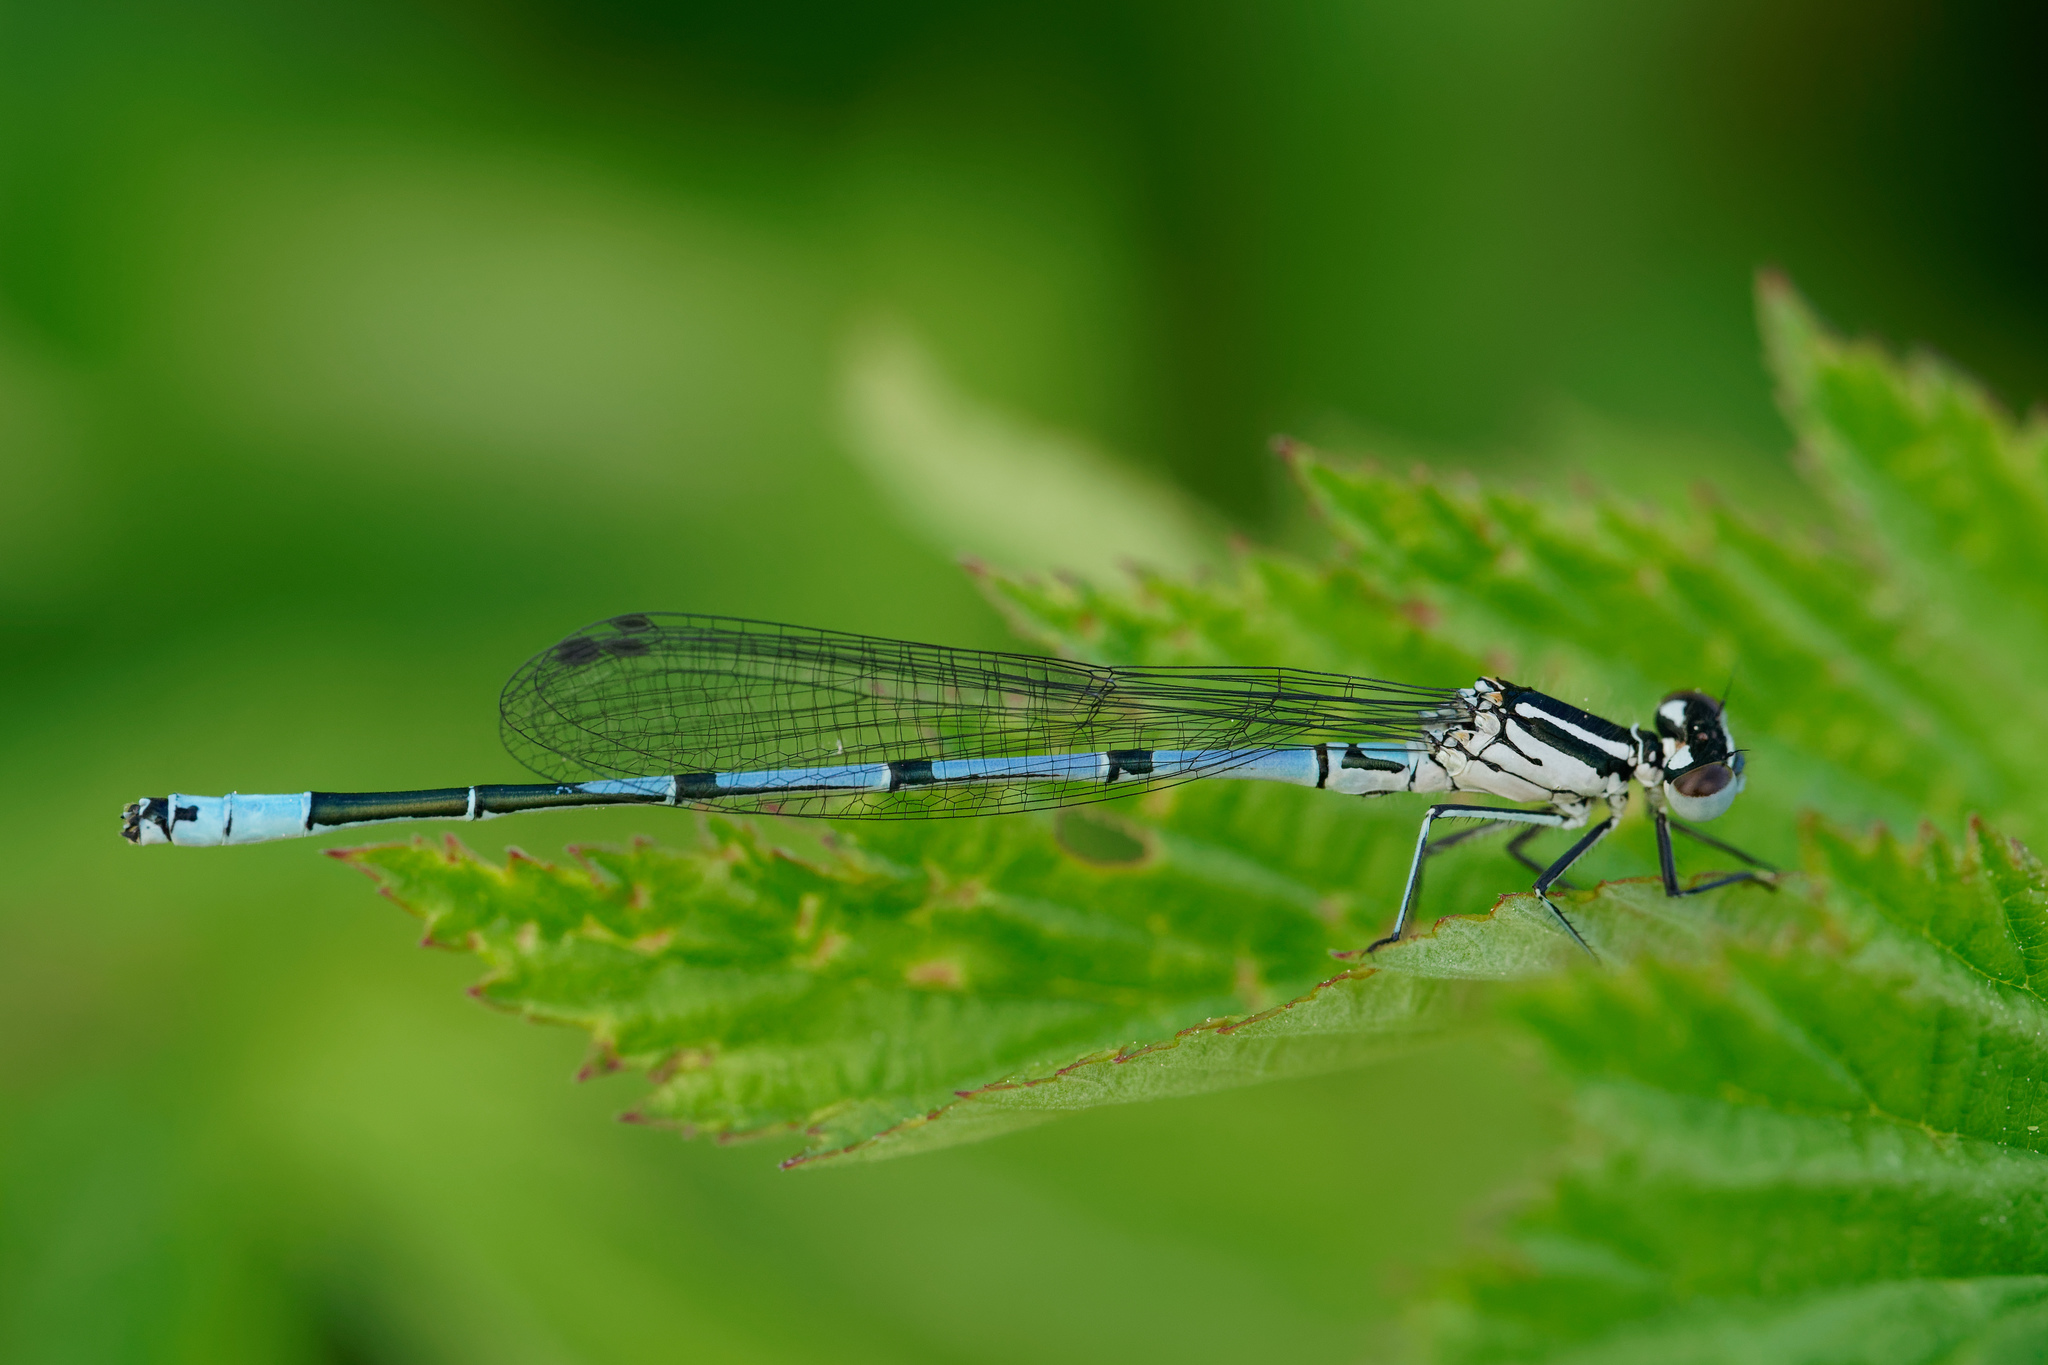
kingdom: Animalia
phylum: Arthropoda
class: Insecta
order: Odonata
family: Coenagrionidae
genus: Coenagrion
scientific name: Coenagrion puella
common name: Azure damselfly
